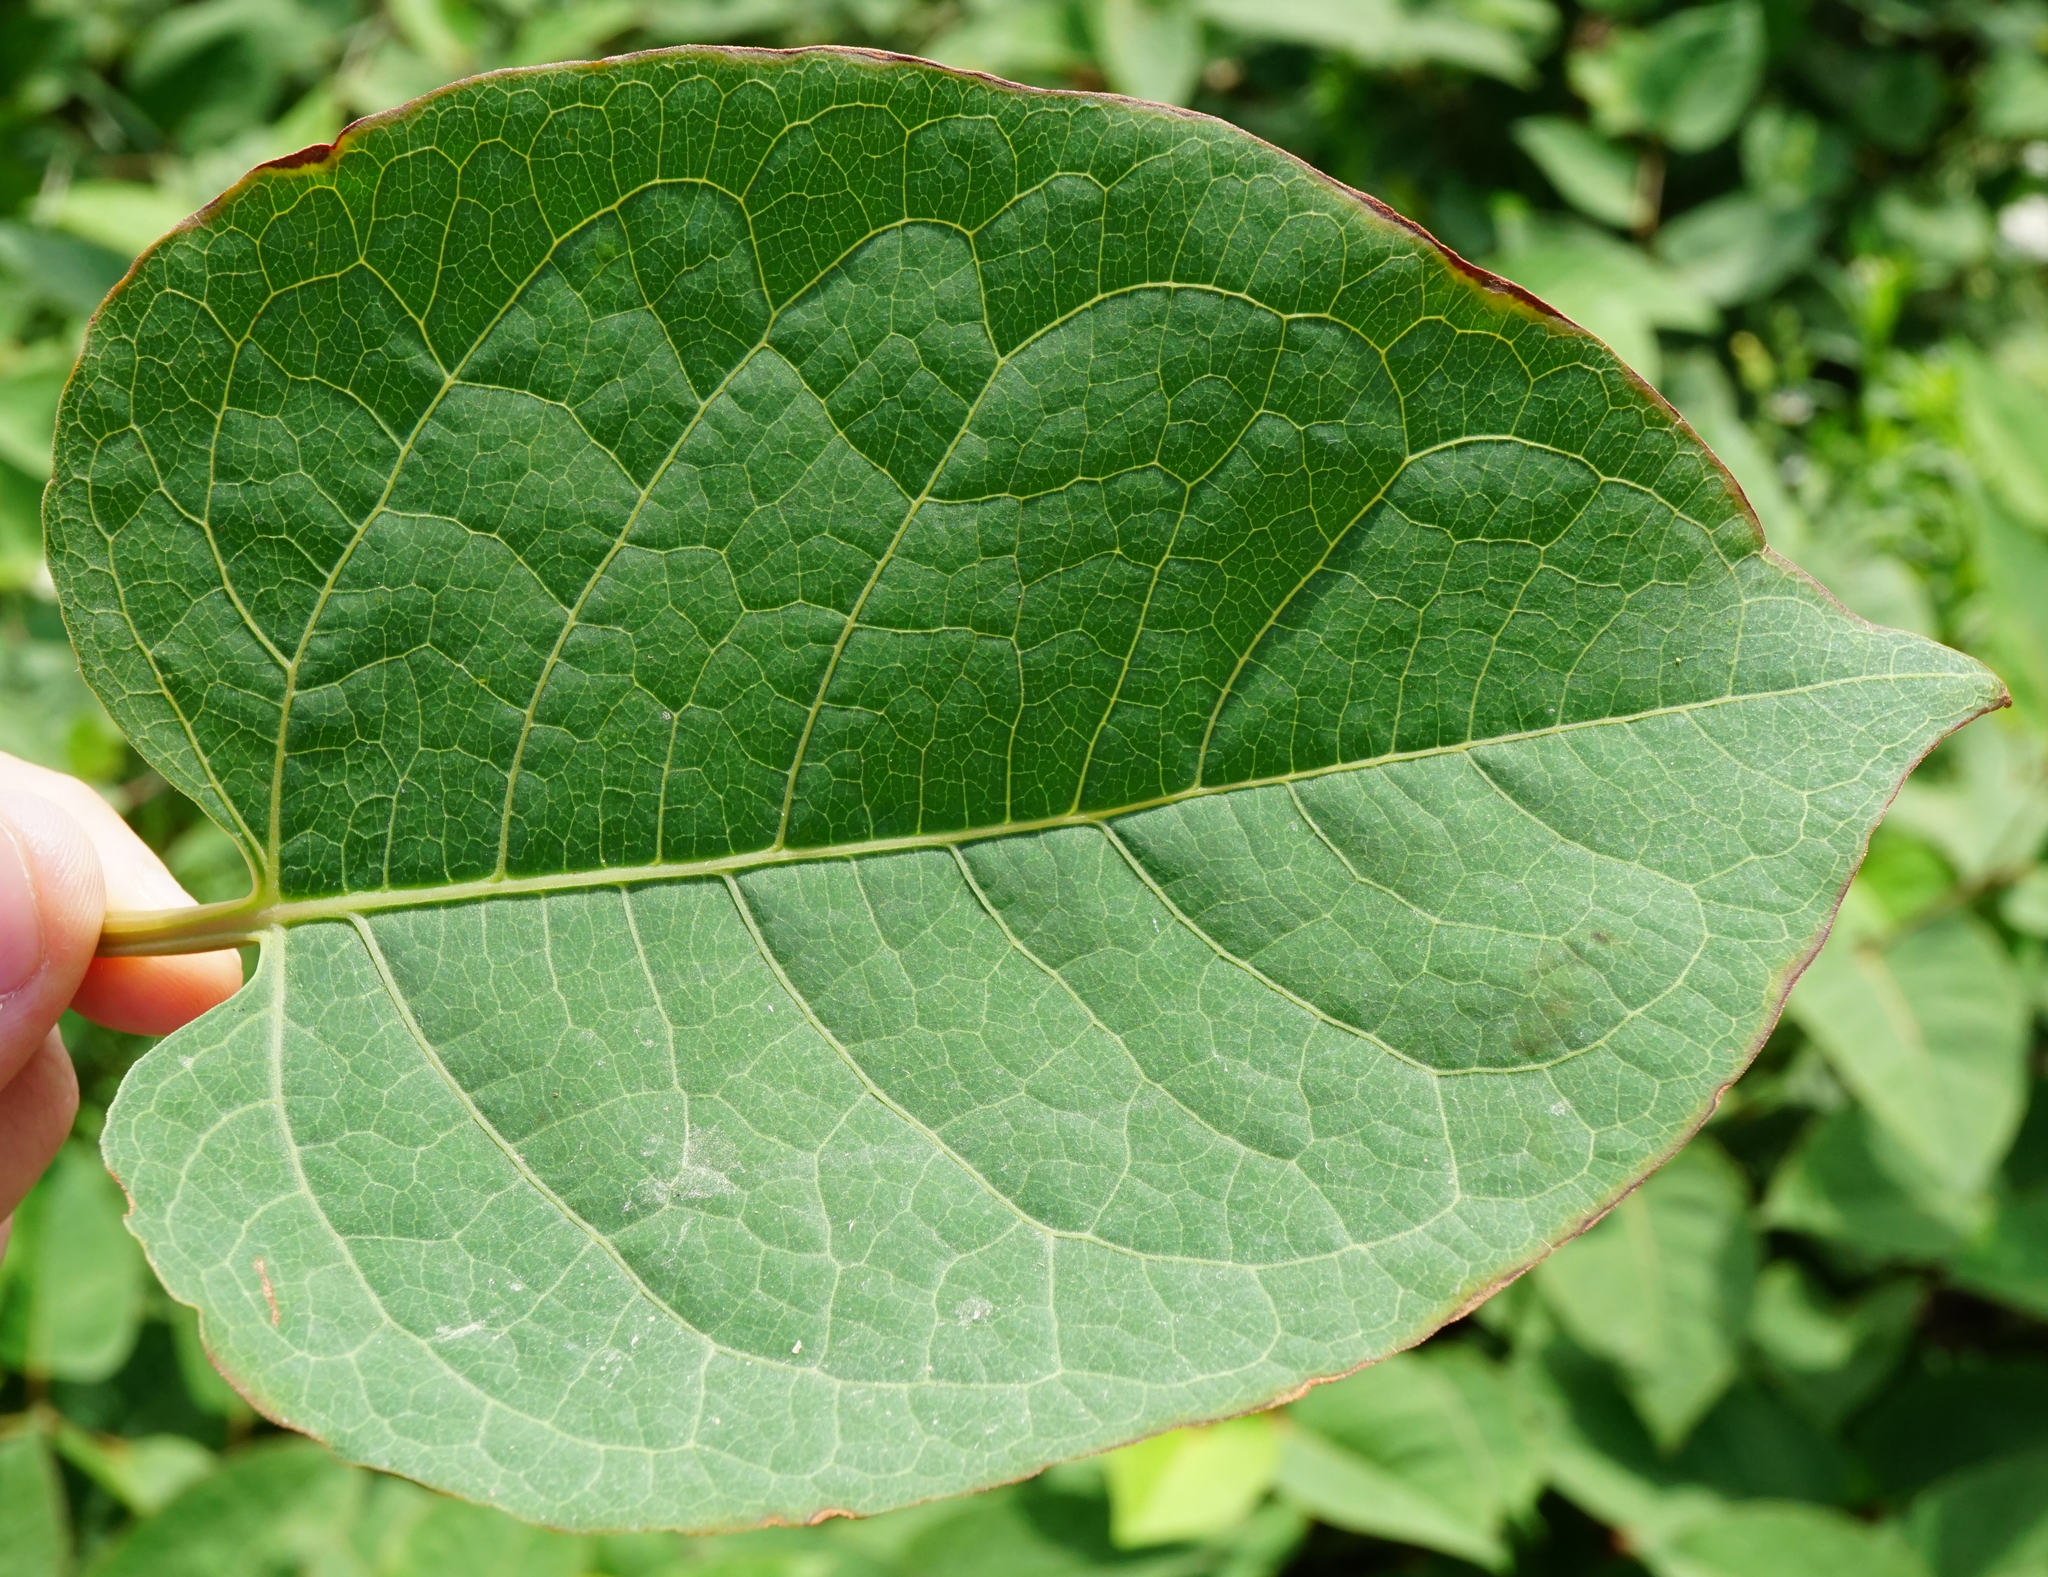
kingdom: Plantae
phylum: Tracheophyta
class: Magnoliopsida
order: Caryophyllales
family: Polygonaceae
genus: Reynoutria
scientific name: Reynoutria bohemica
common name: Bohemian knotweed
